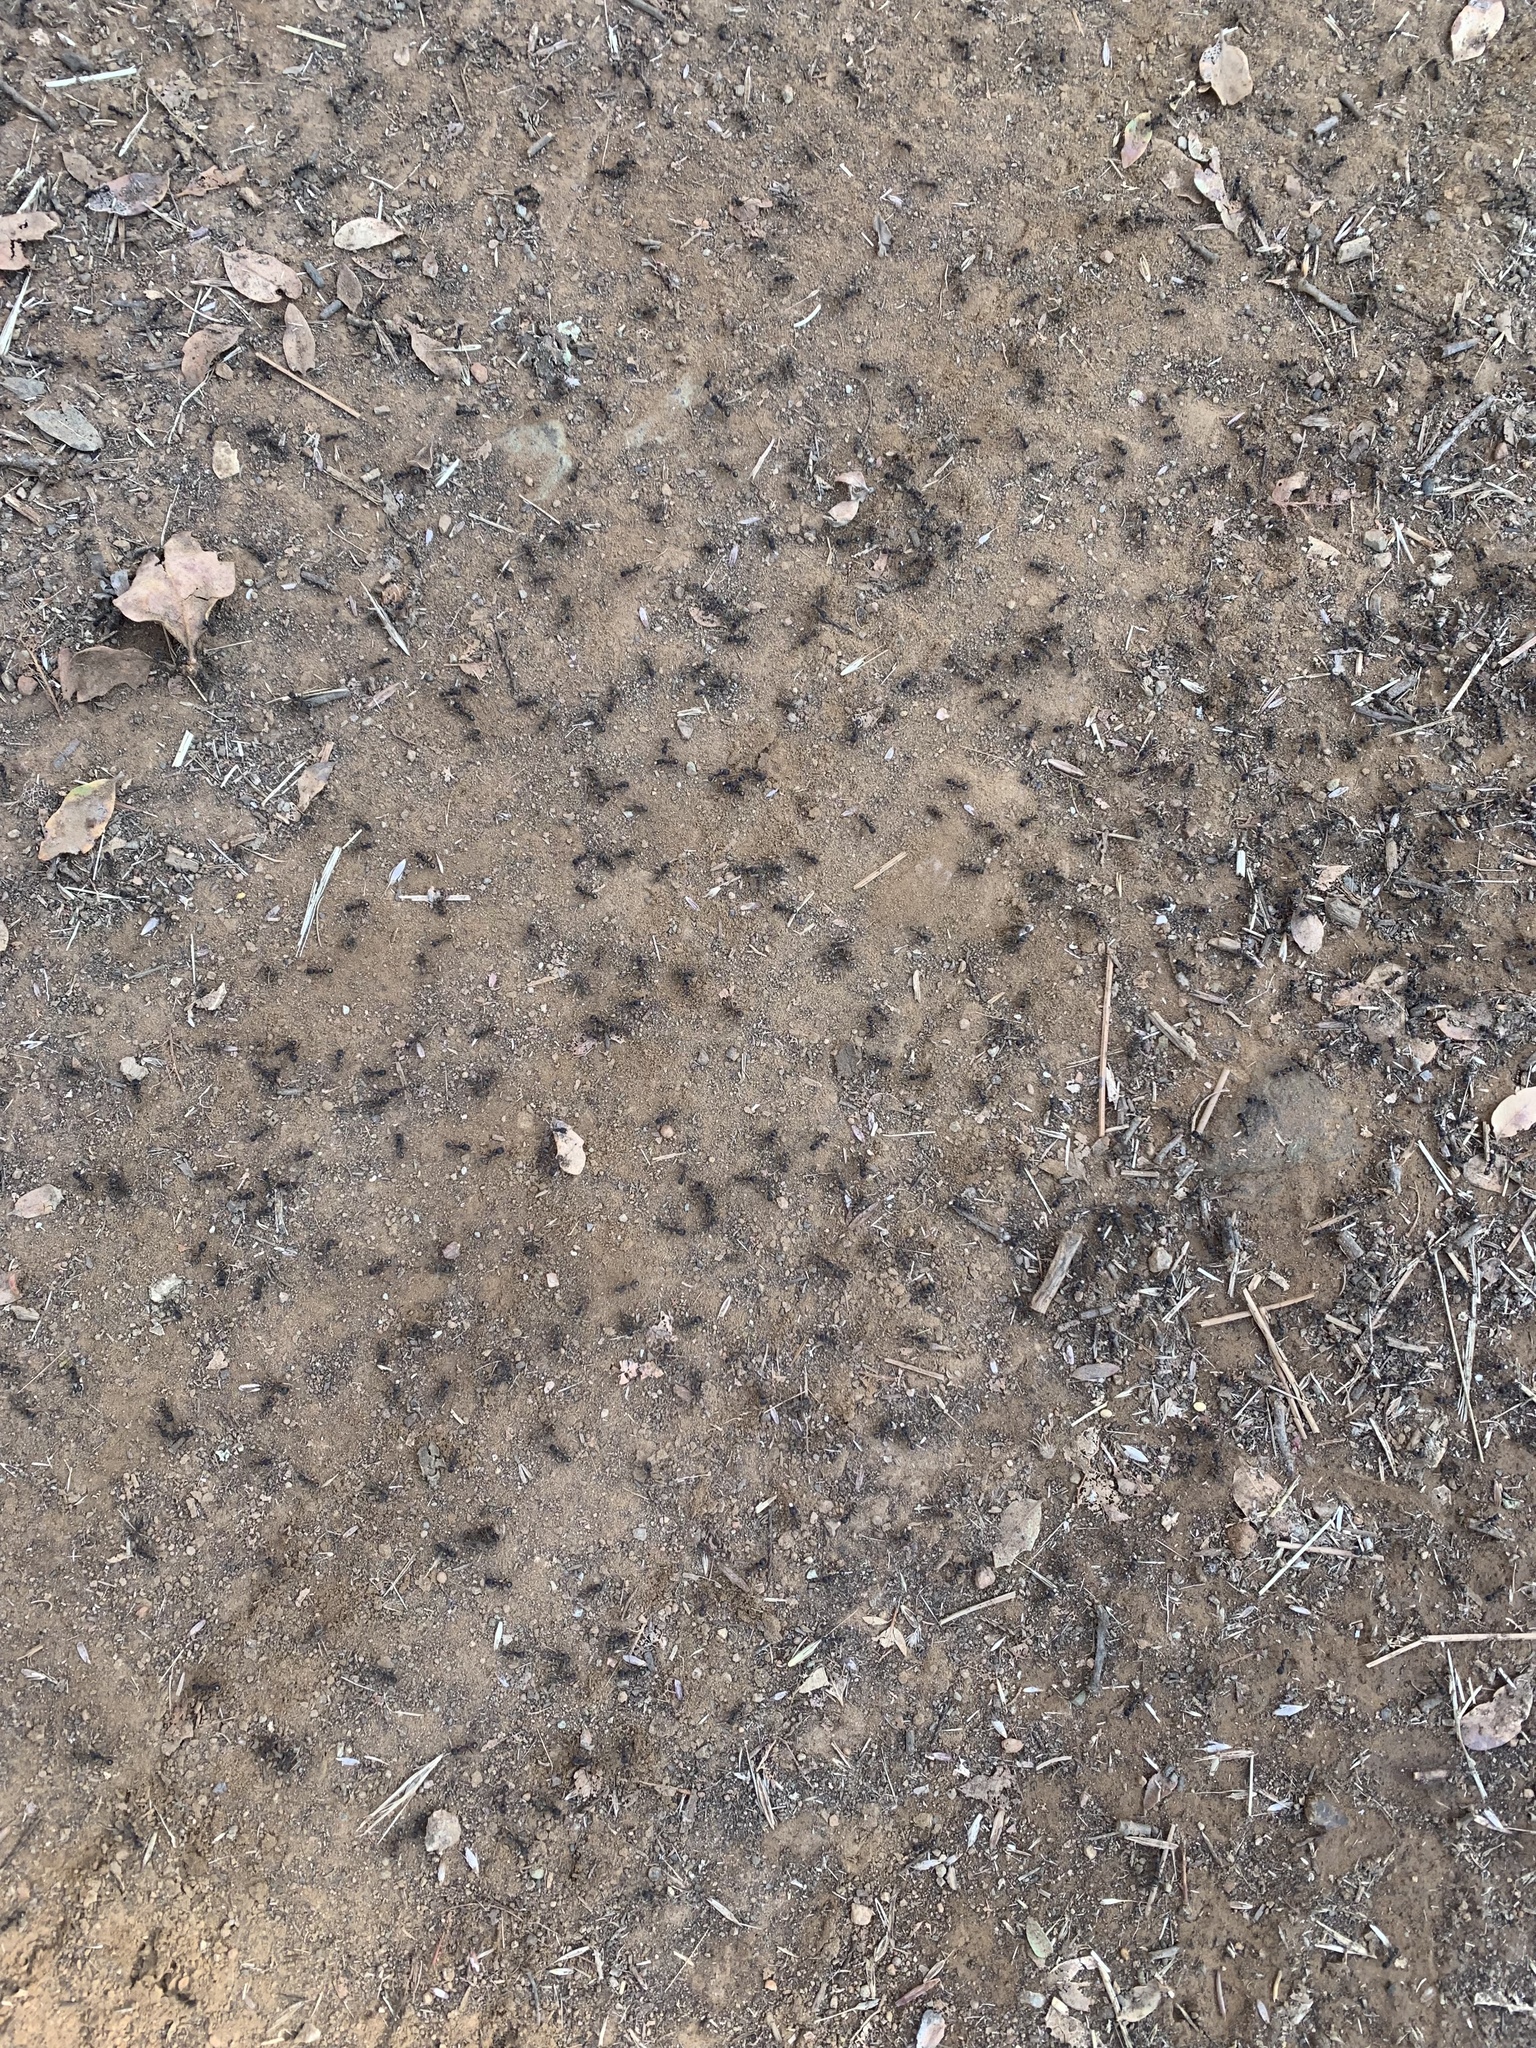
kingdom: Animalia
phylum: Arthropoda
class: Insecta
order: Hymenoptera
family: Formicidae
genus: Veromessor
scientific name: Veromessor andrei
